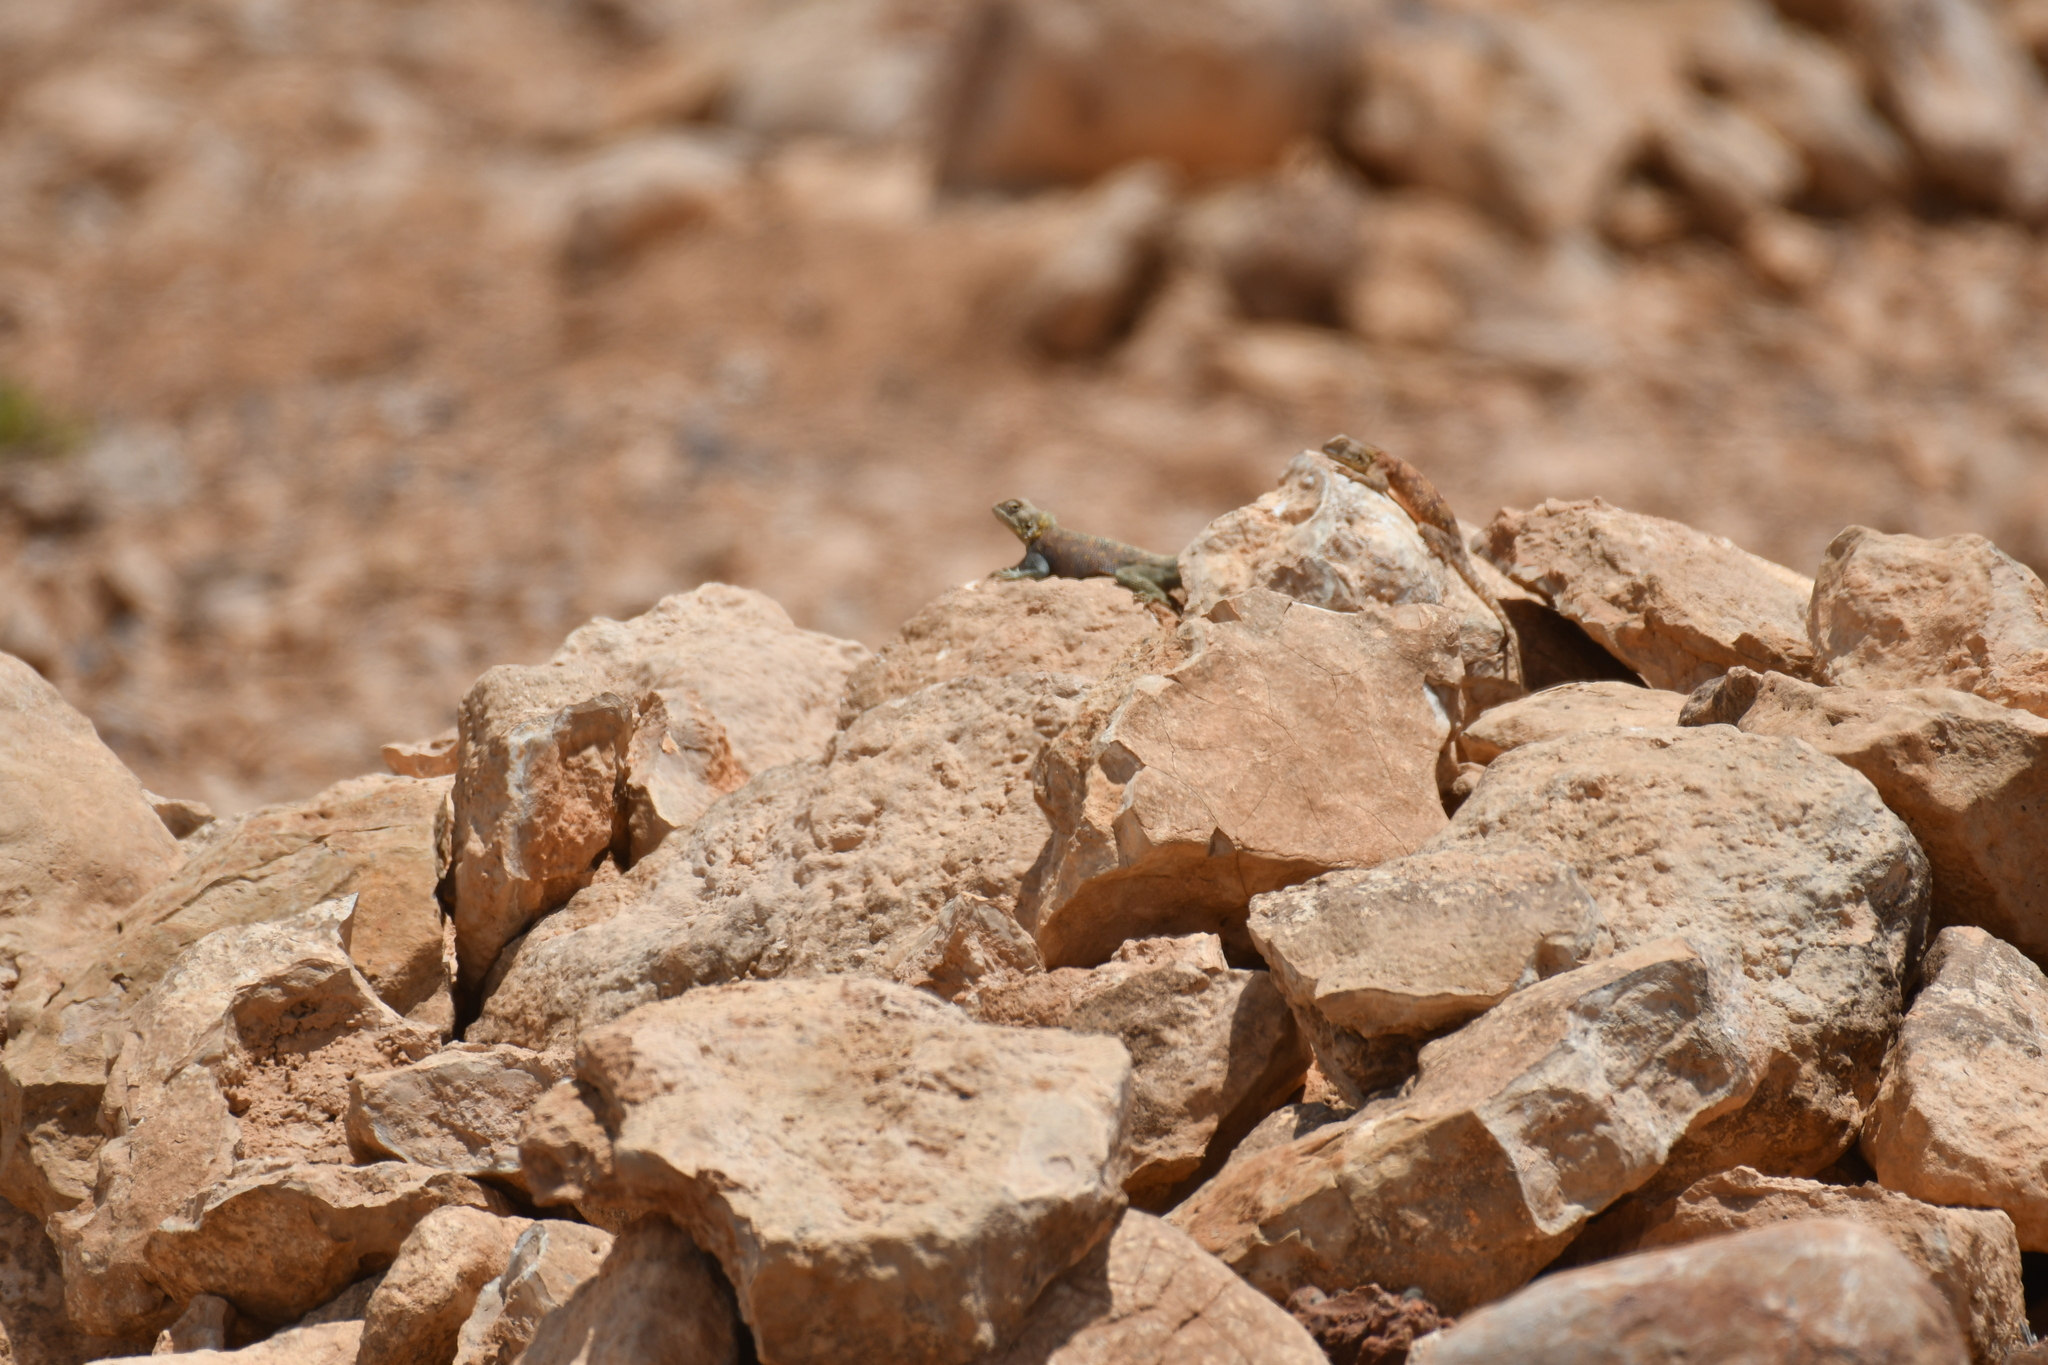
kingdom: Animalia
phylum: Chordata
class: Squamata
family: Agamidae
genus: Agama
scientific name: Agama impalearis
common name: Bibron's agama
